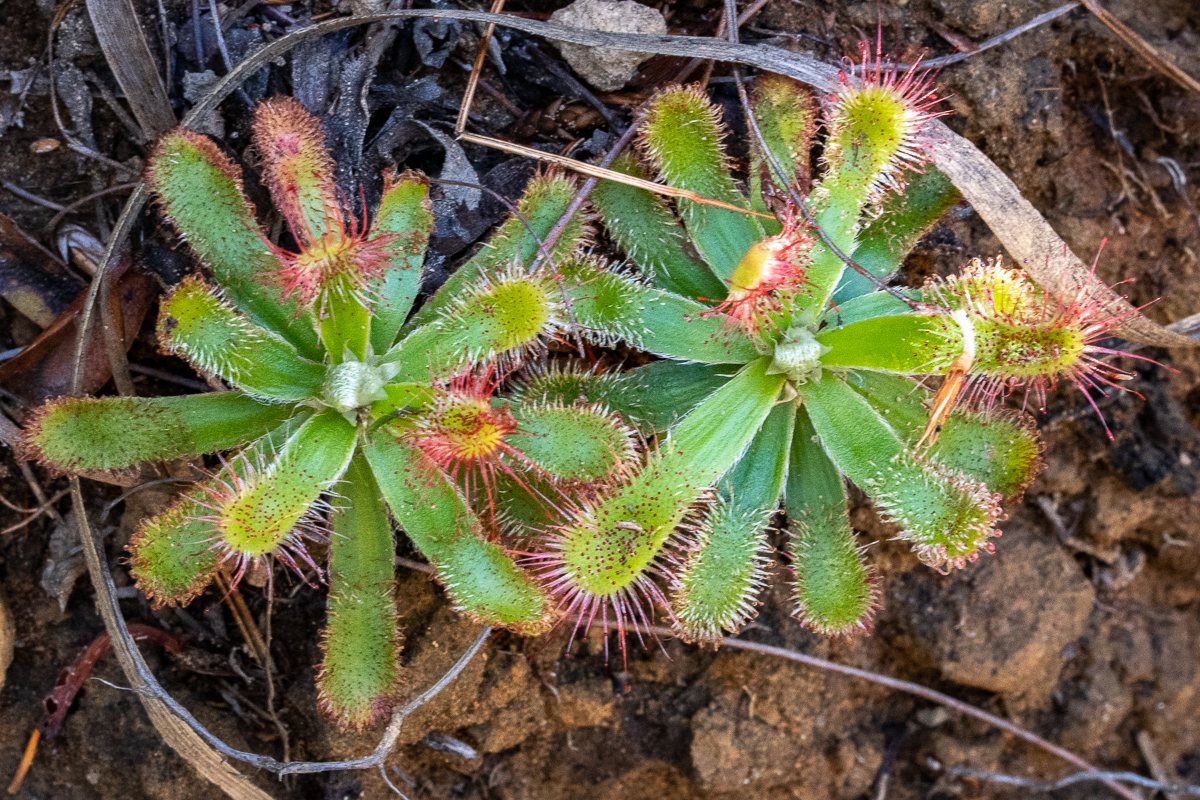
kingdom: Plantae
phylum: Tracheophyta
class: Magnoliopsida
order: Caryophyllales
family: Droseraceae
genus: Drosera
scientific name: Drosera aliciae
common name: Alice sundew
